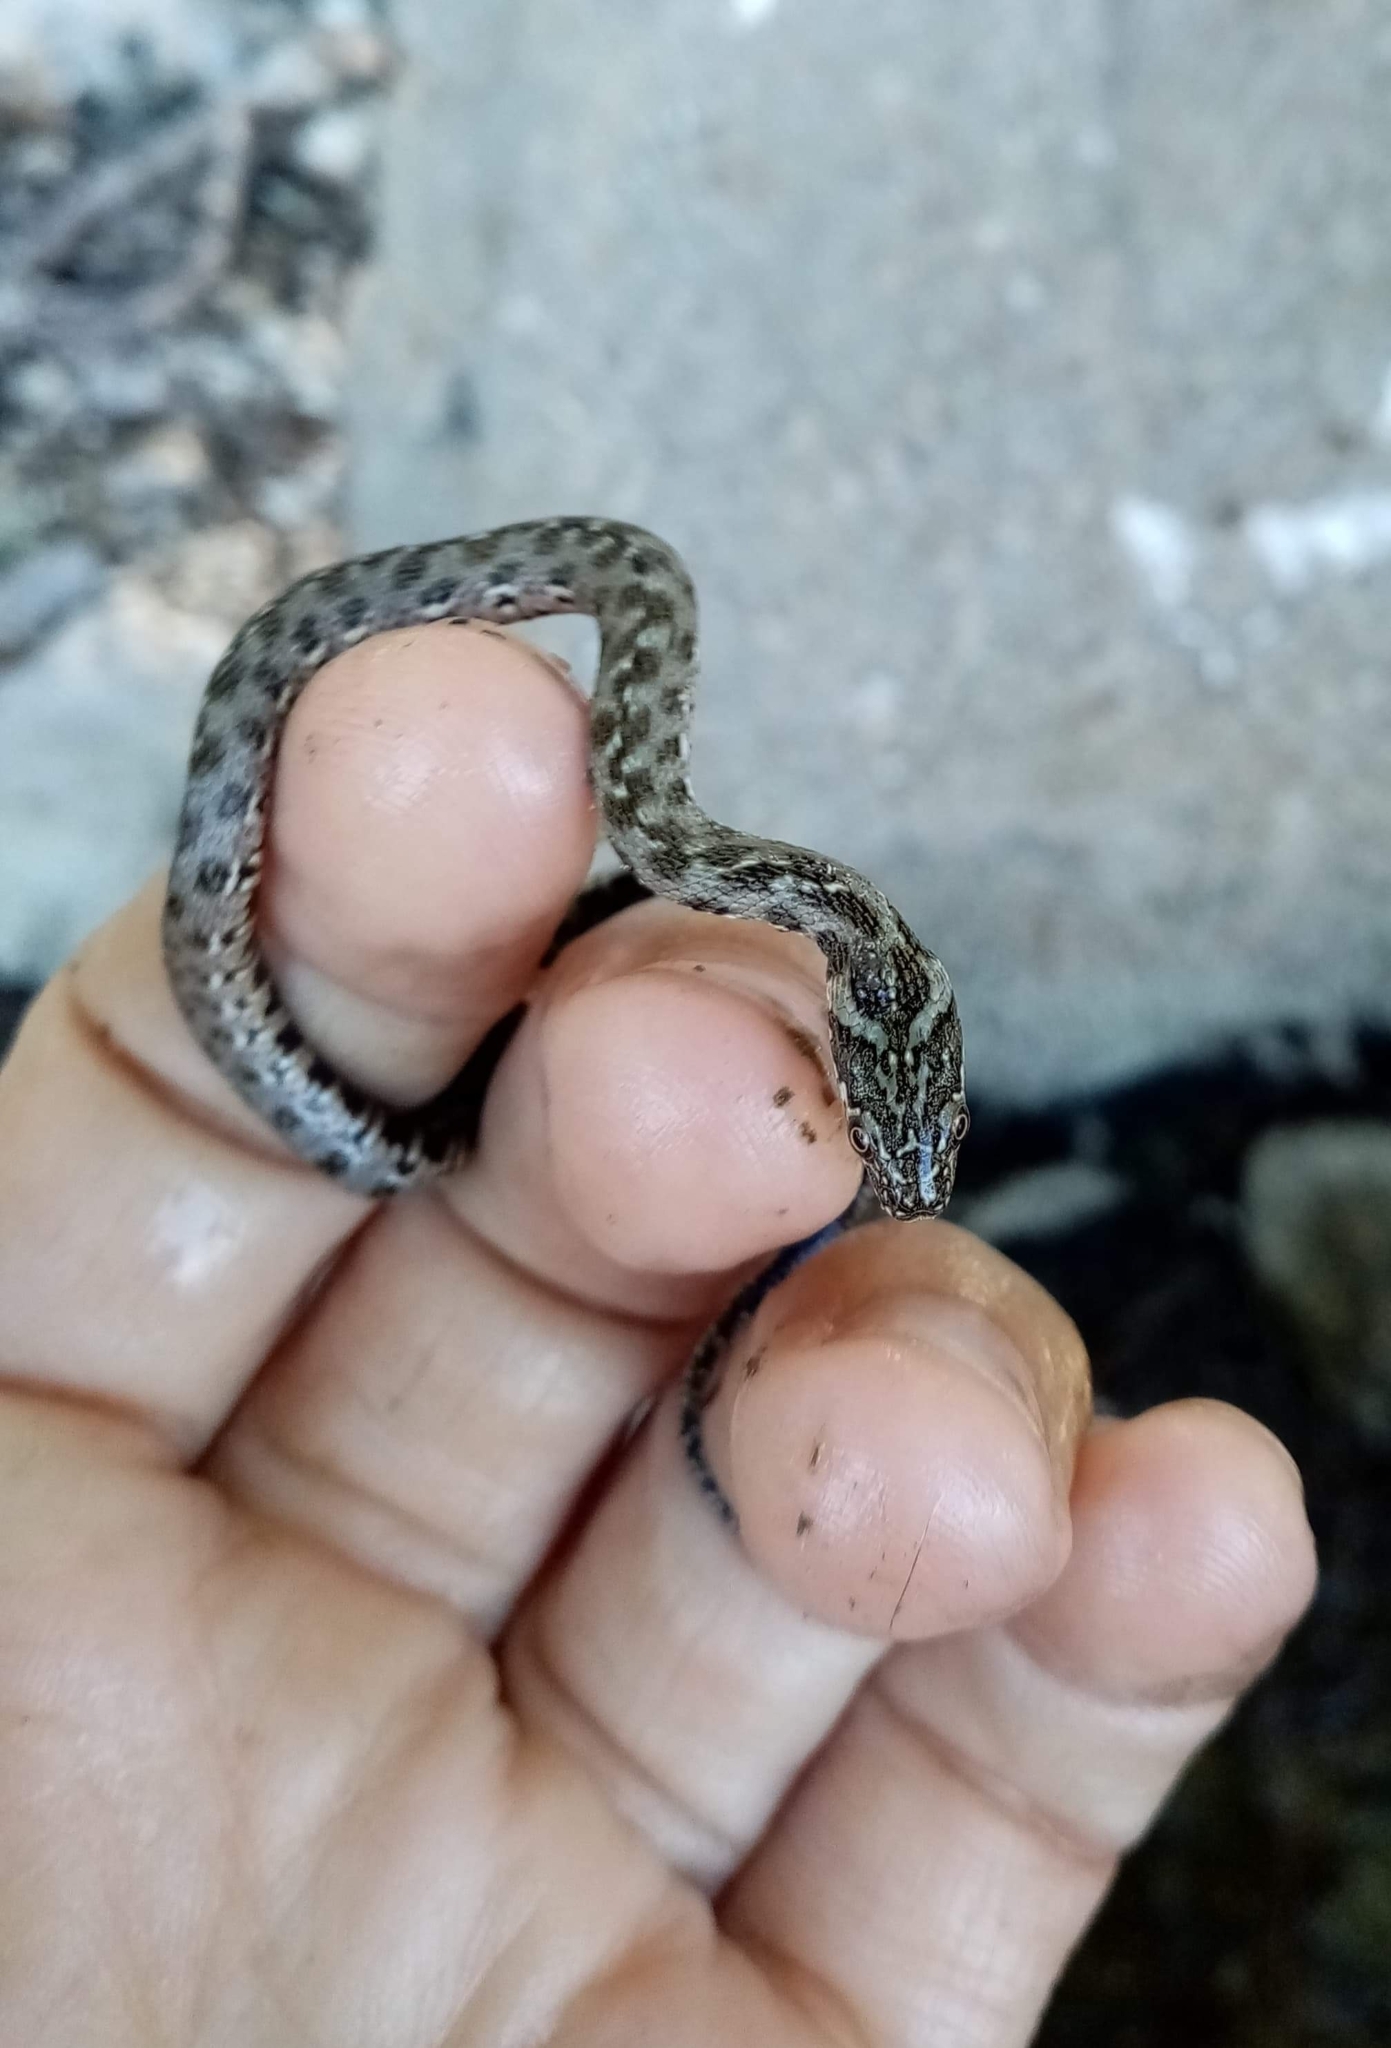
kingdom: Animalia
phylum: Chordata
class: Squamata
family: Colubridae
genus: Natrix
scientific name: Natrix maura
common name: Viperine water snake
